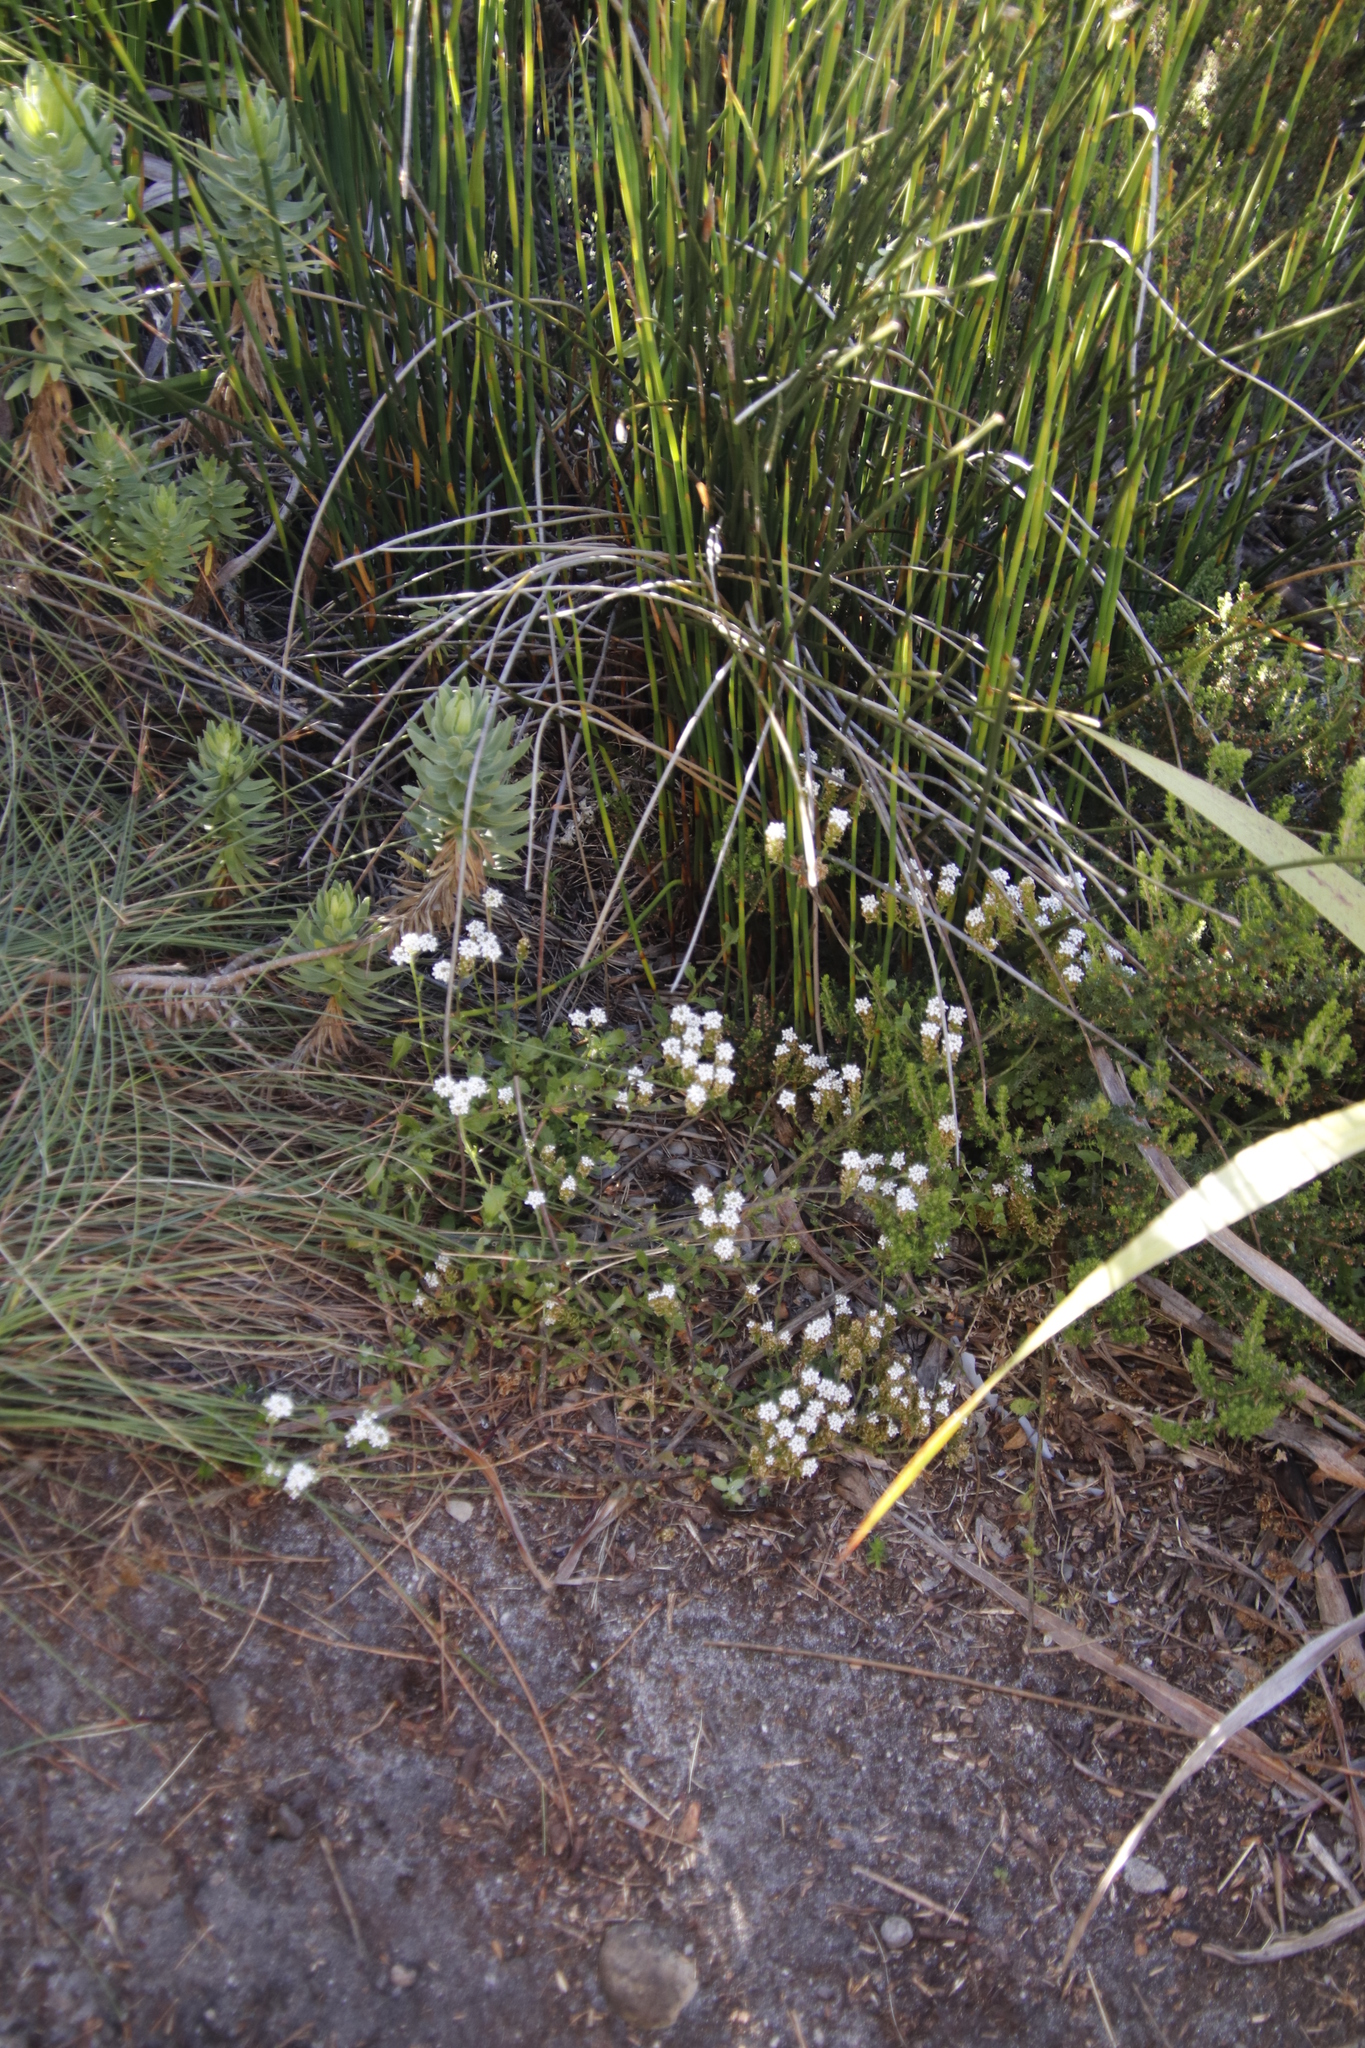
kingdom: Plantae
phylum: Tracheophyta
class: Magnoliopsida
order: Lamiales
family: Scrophulariaceae
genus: Pseudoselago
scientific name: Pseudoselago peninsulae
